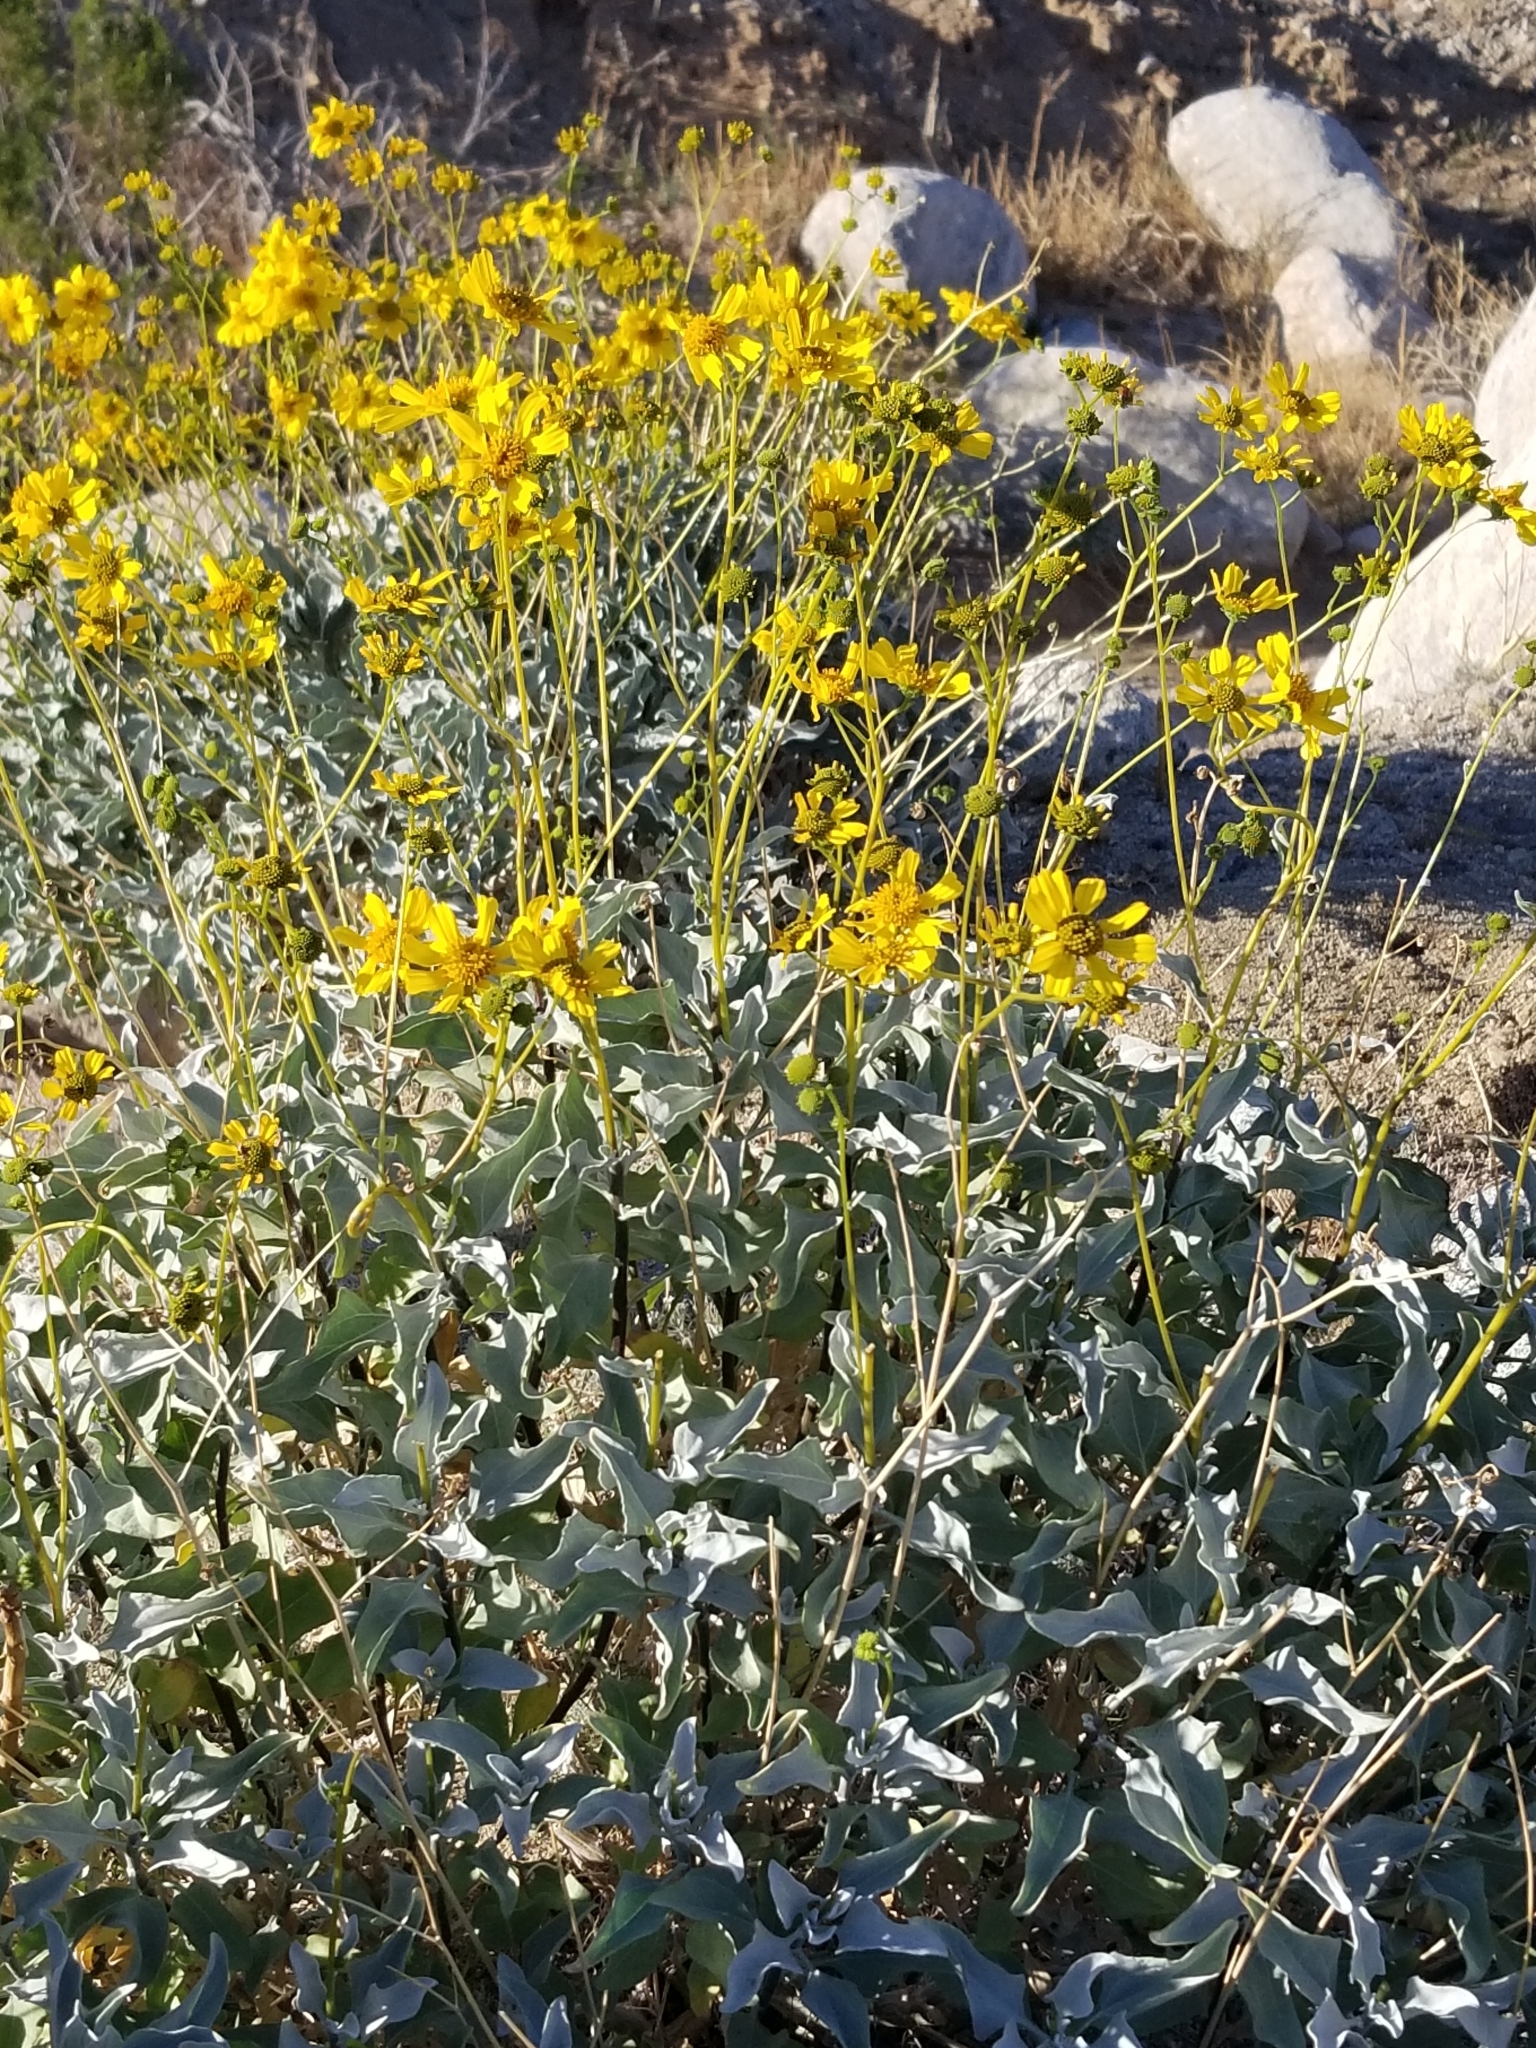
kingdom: Plantae
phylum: Tracheophyta
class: Magnoliopsida
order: Asterales
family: Asteraceae
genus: Encelia
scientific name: Encelia farinosa
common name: Brittlebush
